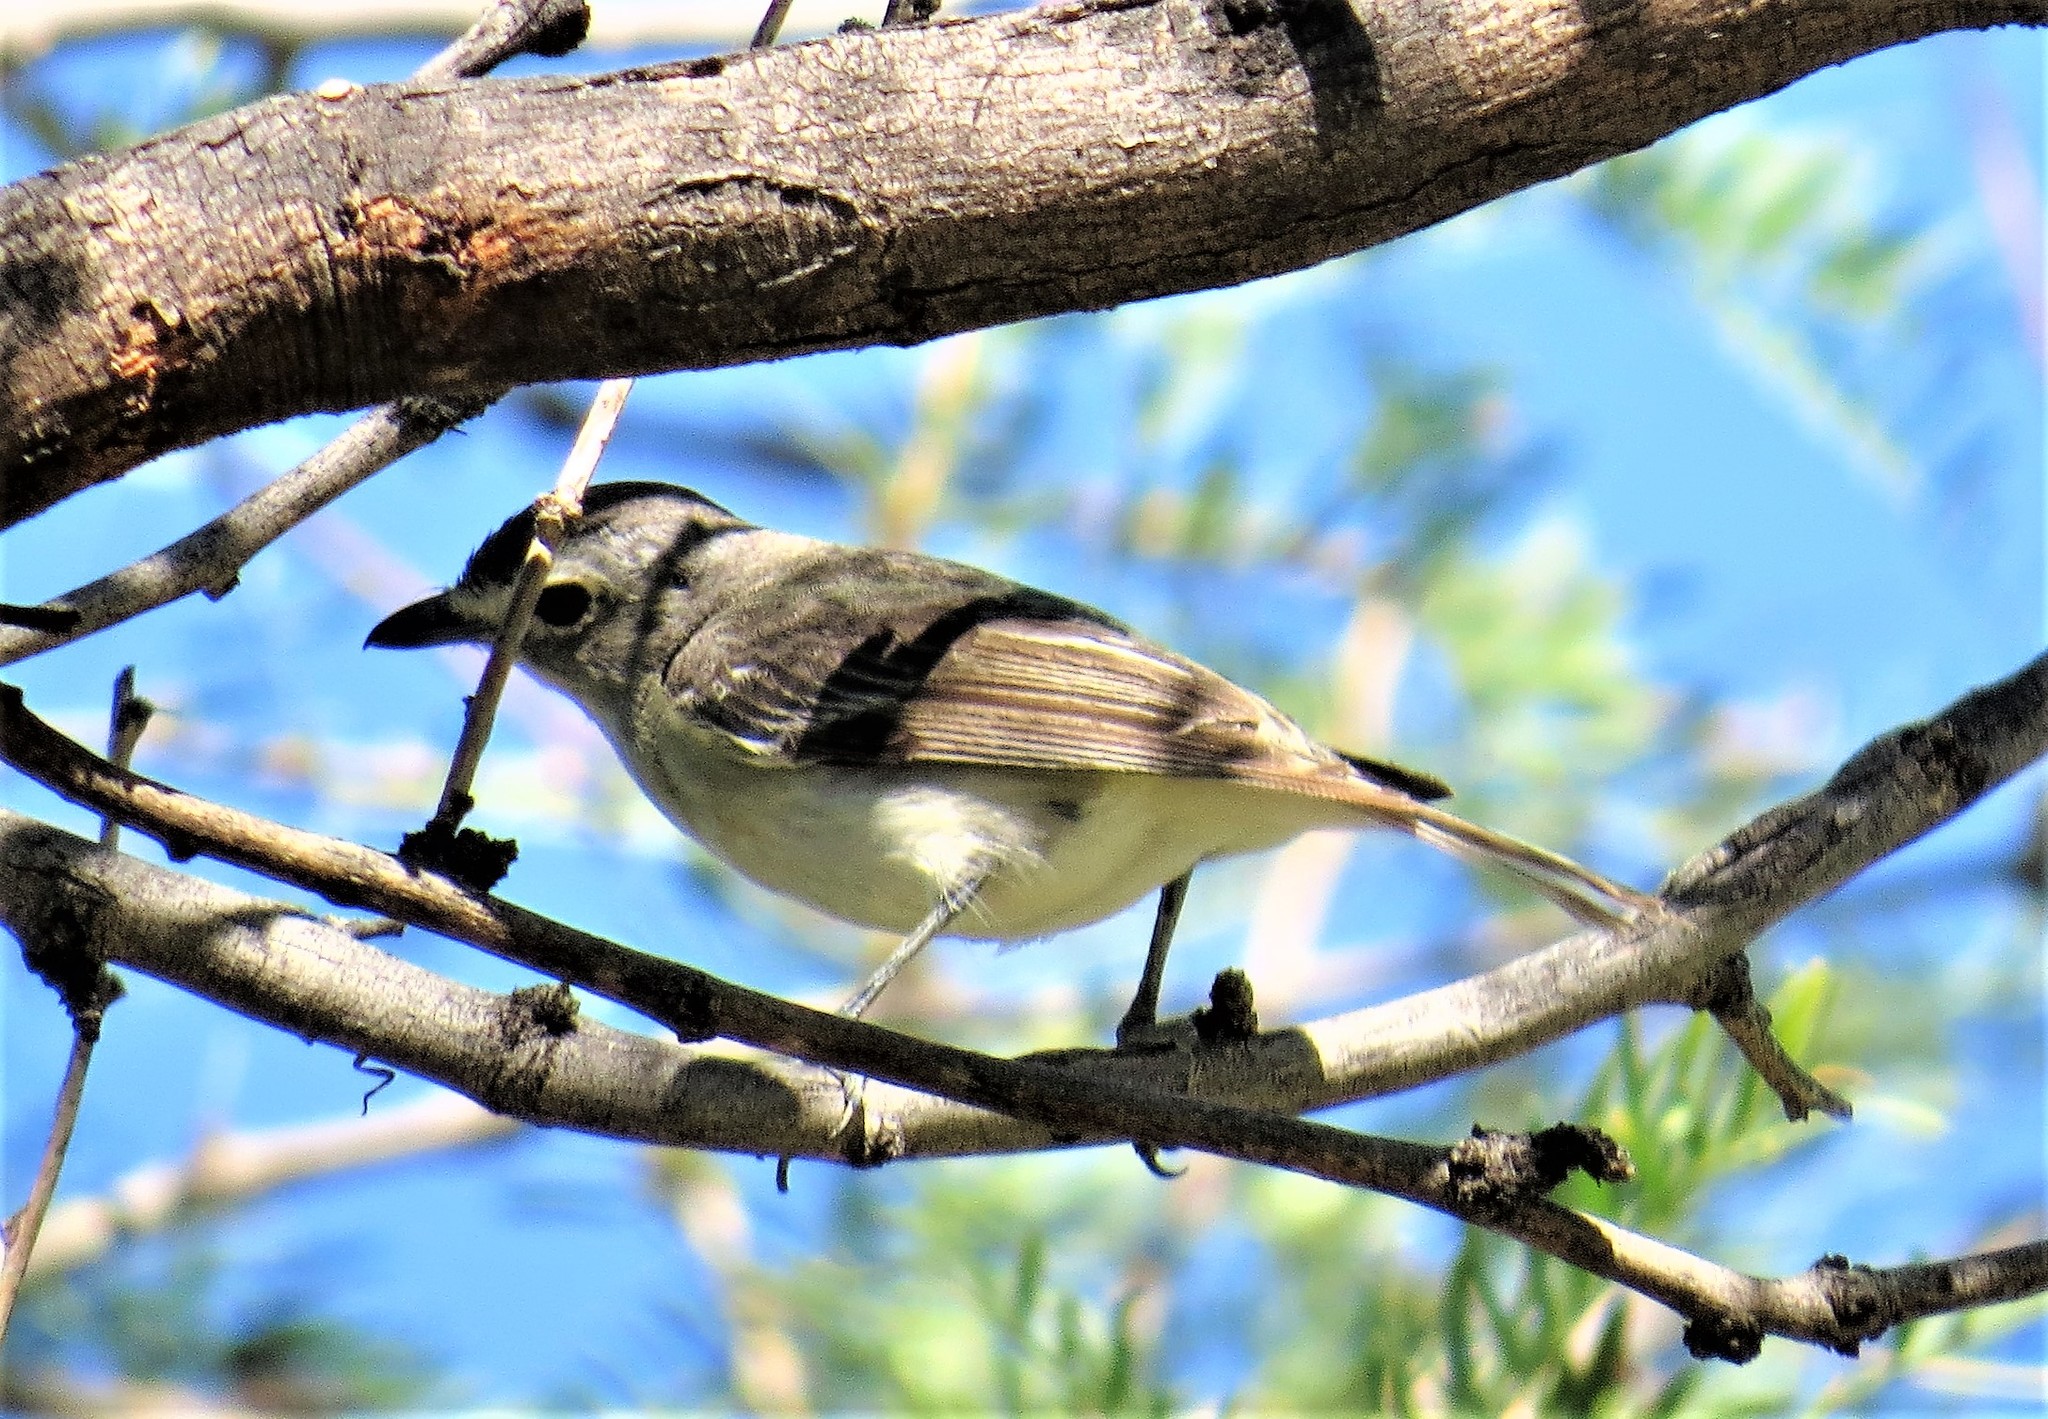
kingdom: Animalia
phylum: Chordata
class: Aves
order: Passeriformes
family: Vireonidae
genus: Vireo
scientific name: Vireo plumbeus
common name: Plumbeous vireo
